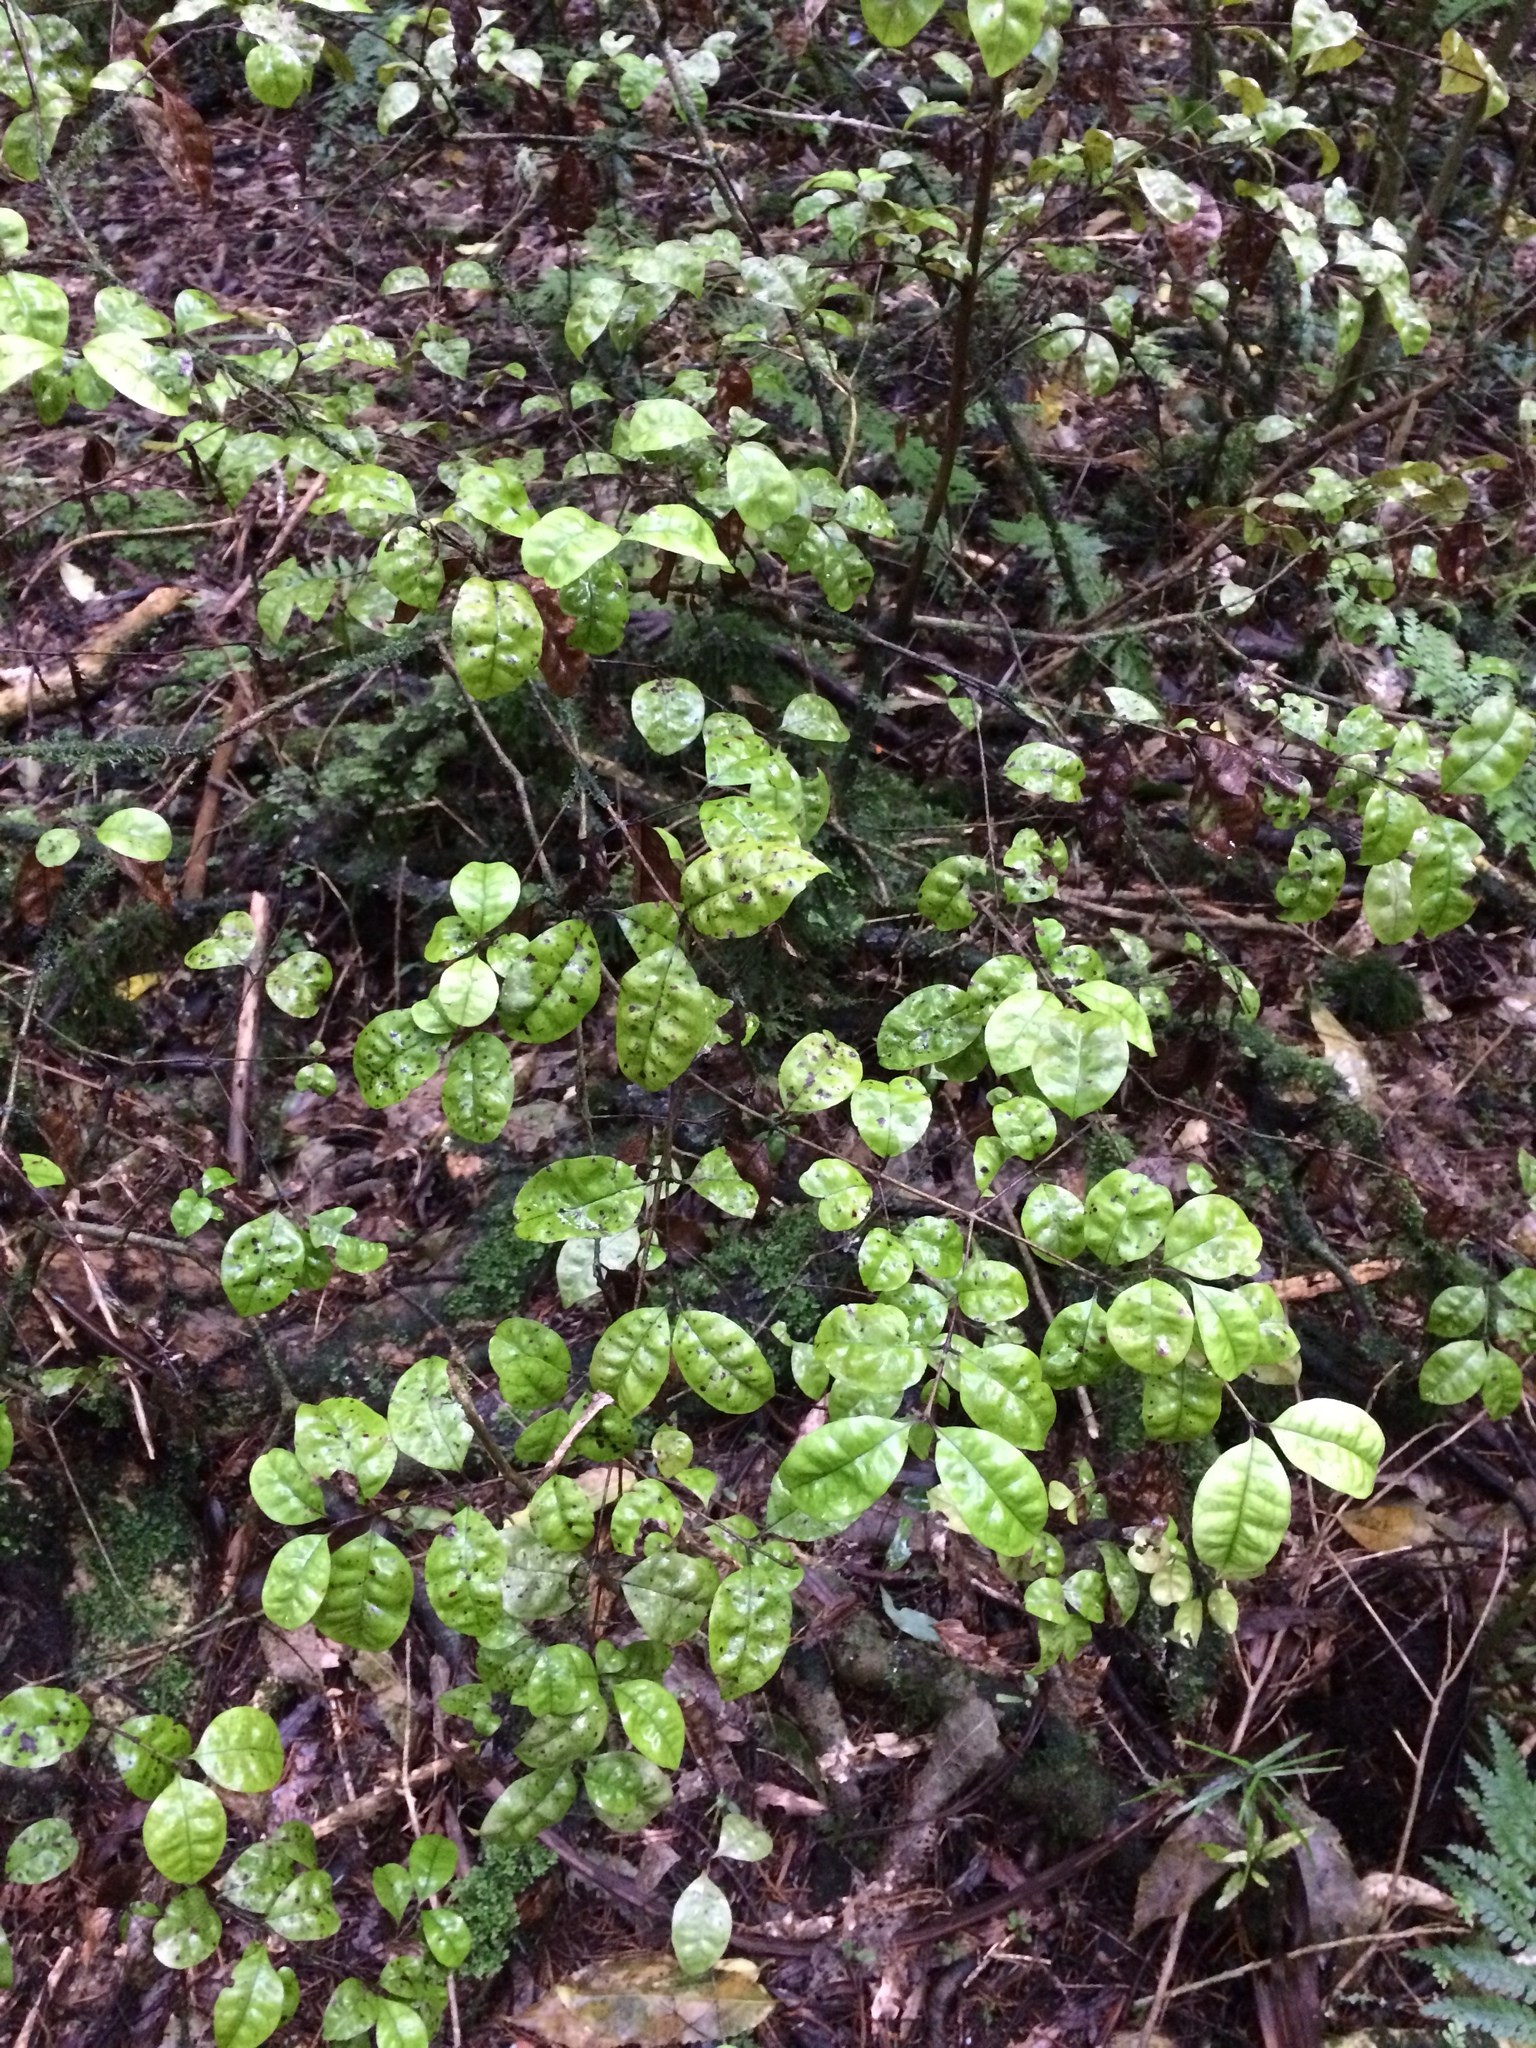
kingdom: Plantae
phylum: Tracheophyta
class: Magnoliopsida
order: Myrtales
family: Myrtaceae
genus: Lophomyrtus
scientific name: Lophomyrtus bullata
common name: Rama rama
